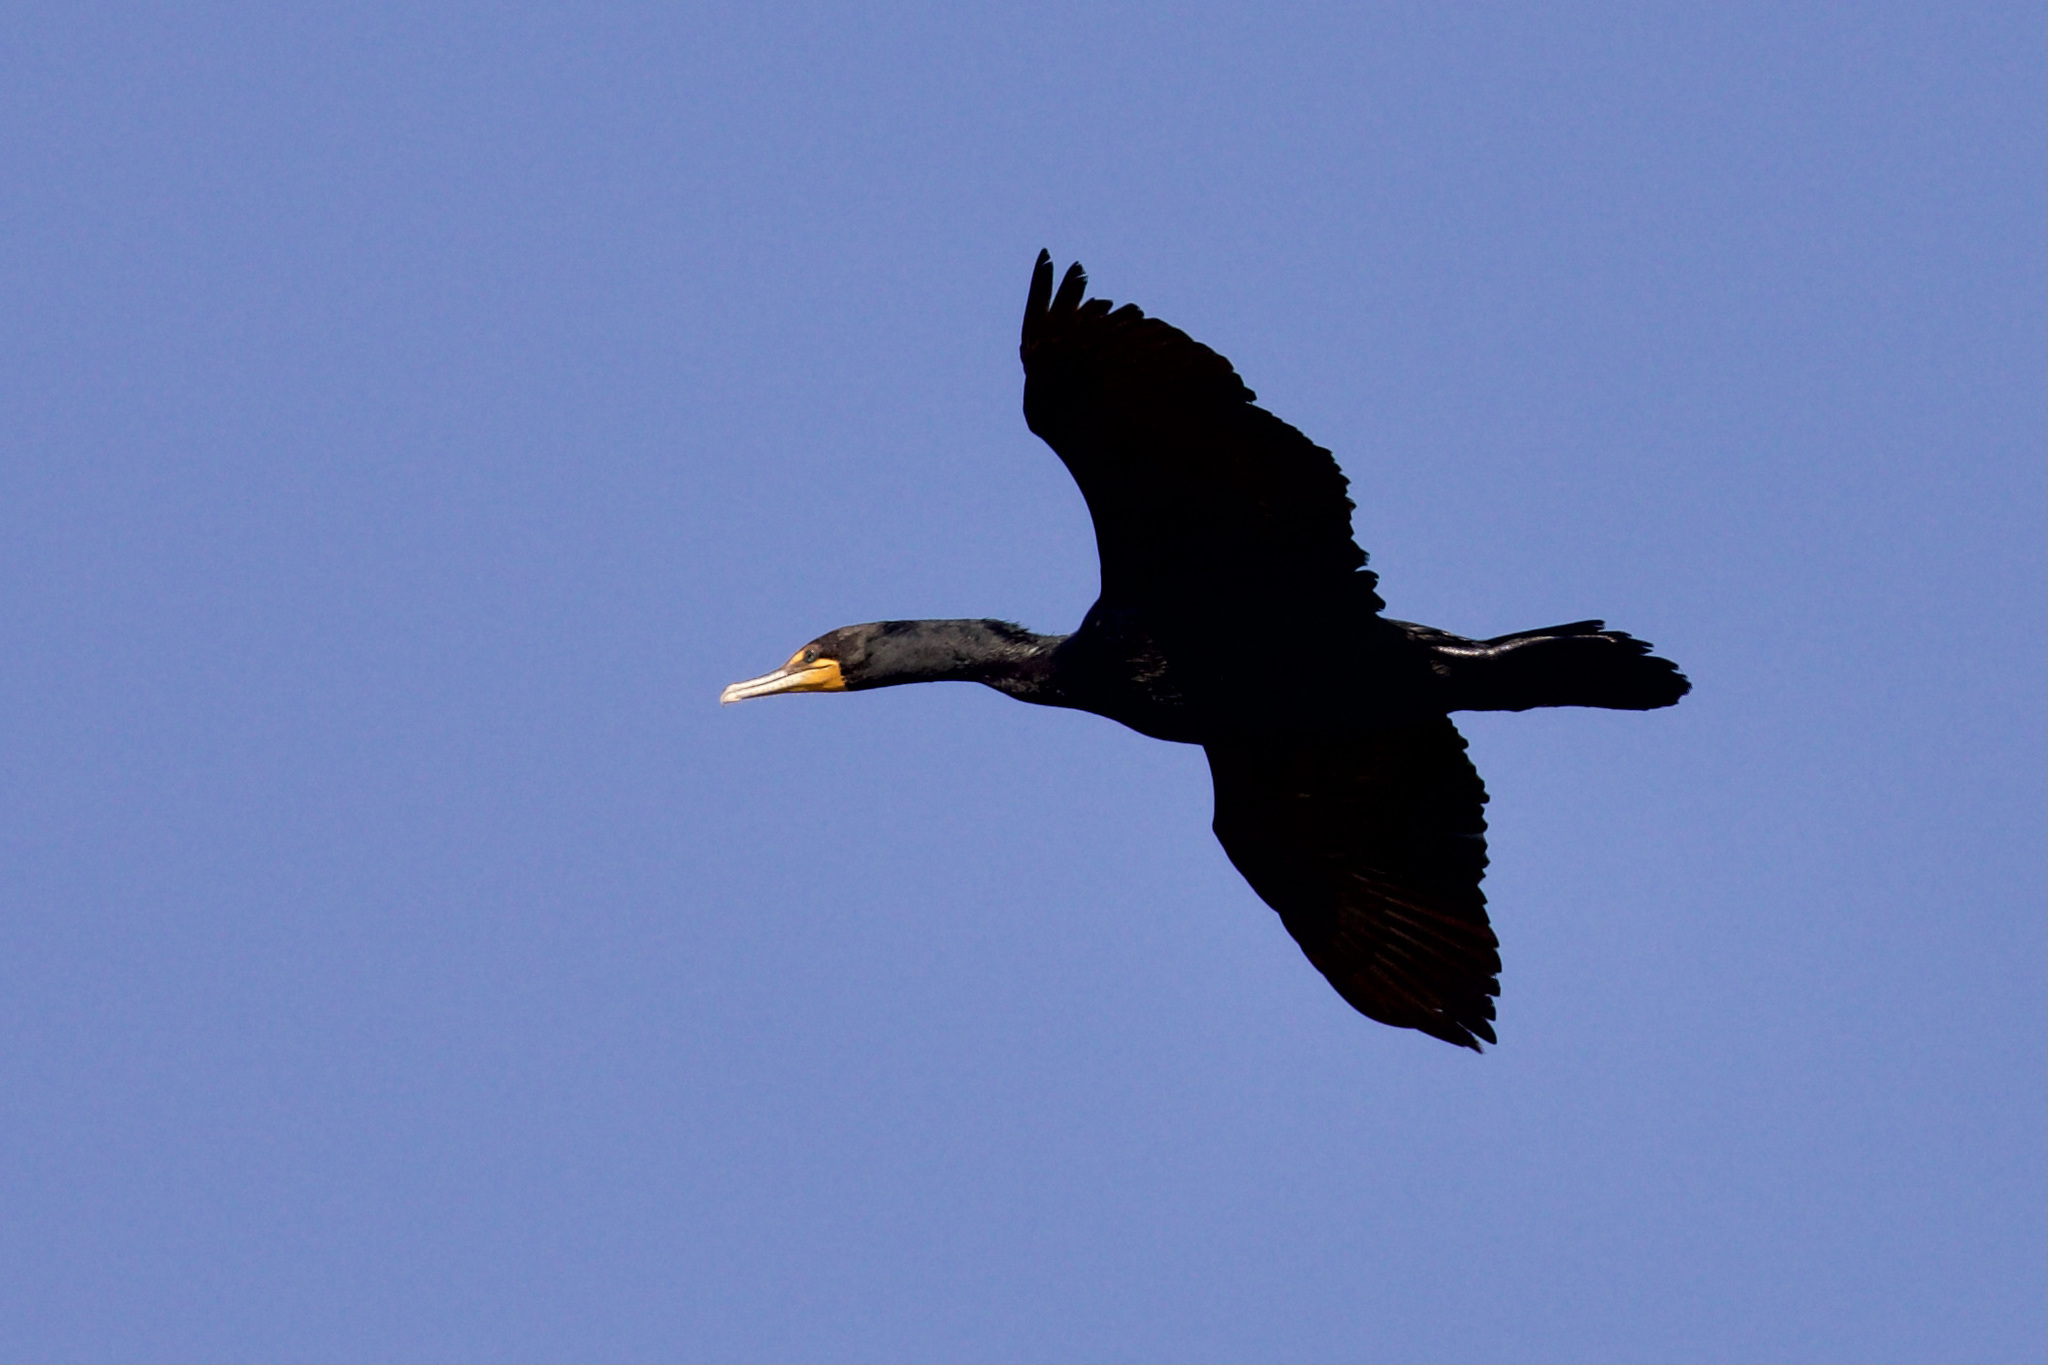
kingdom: Animalia
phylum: Chordata
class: Aves
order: Suliformes
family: Phalacrocoracidae
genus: Phalacrocorax
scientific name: Phalacrocorax auritus
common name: Double-crested cormorant
